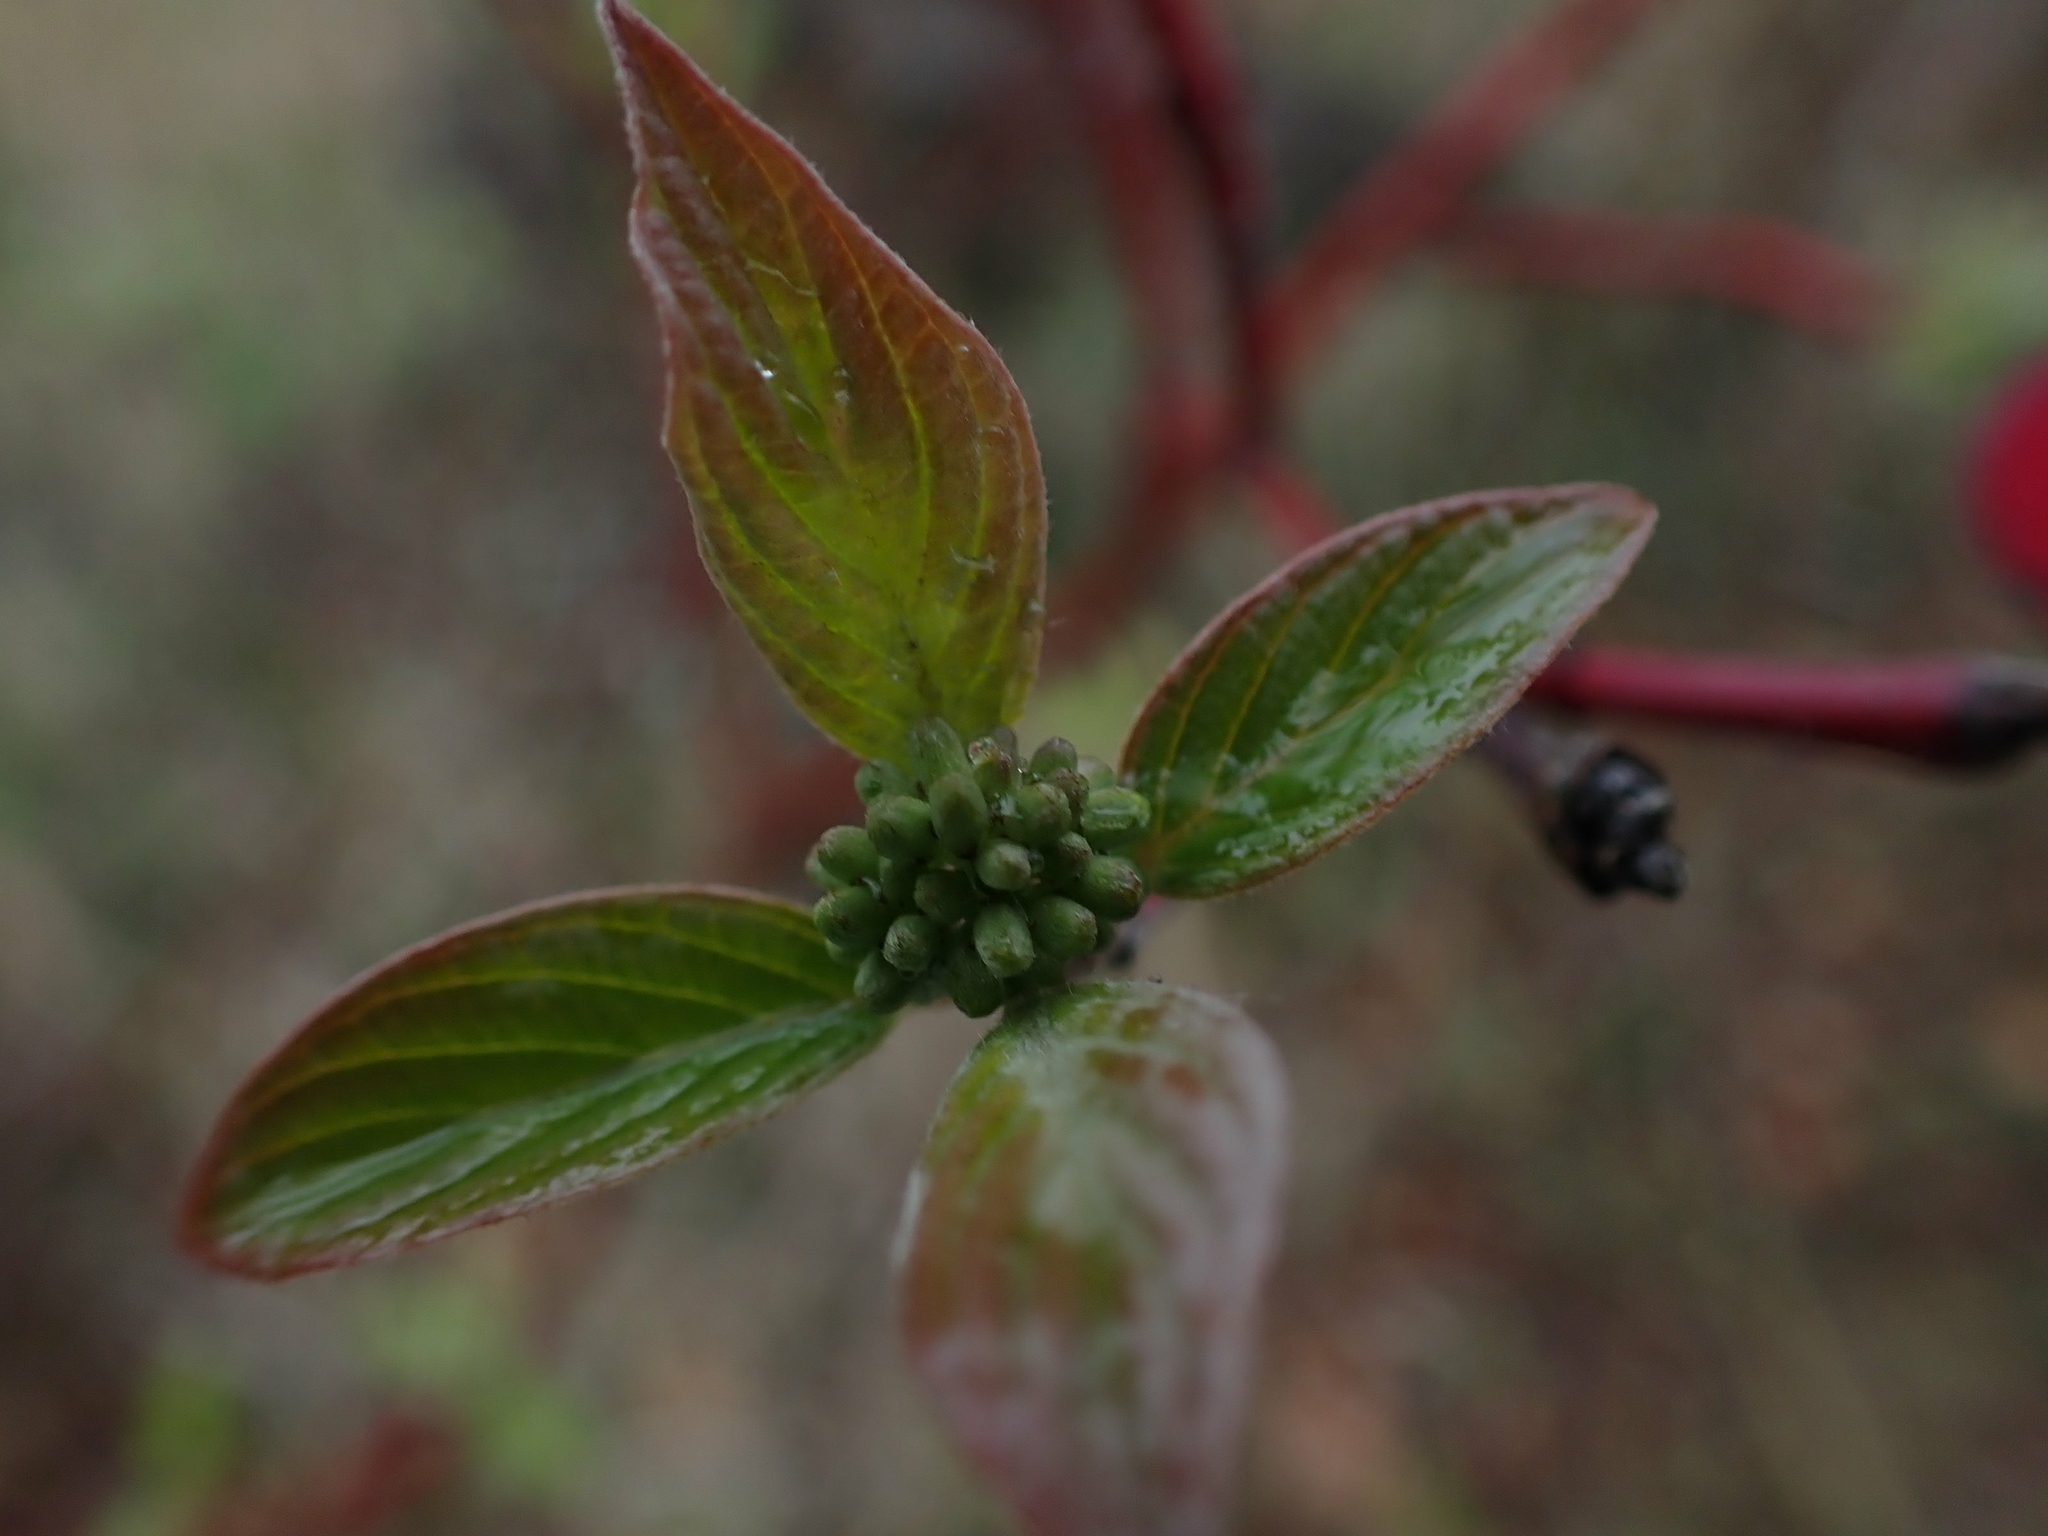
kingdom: Plantae
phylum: Tracheophyta
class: Magnoliopsida
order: Cornales
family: Cornaceae
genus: Cornus
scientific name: Cornus sericea
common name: Red-osier dogwood
